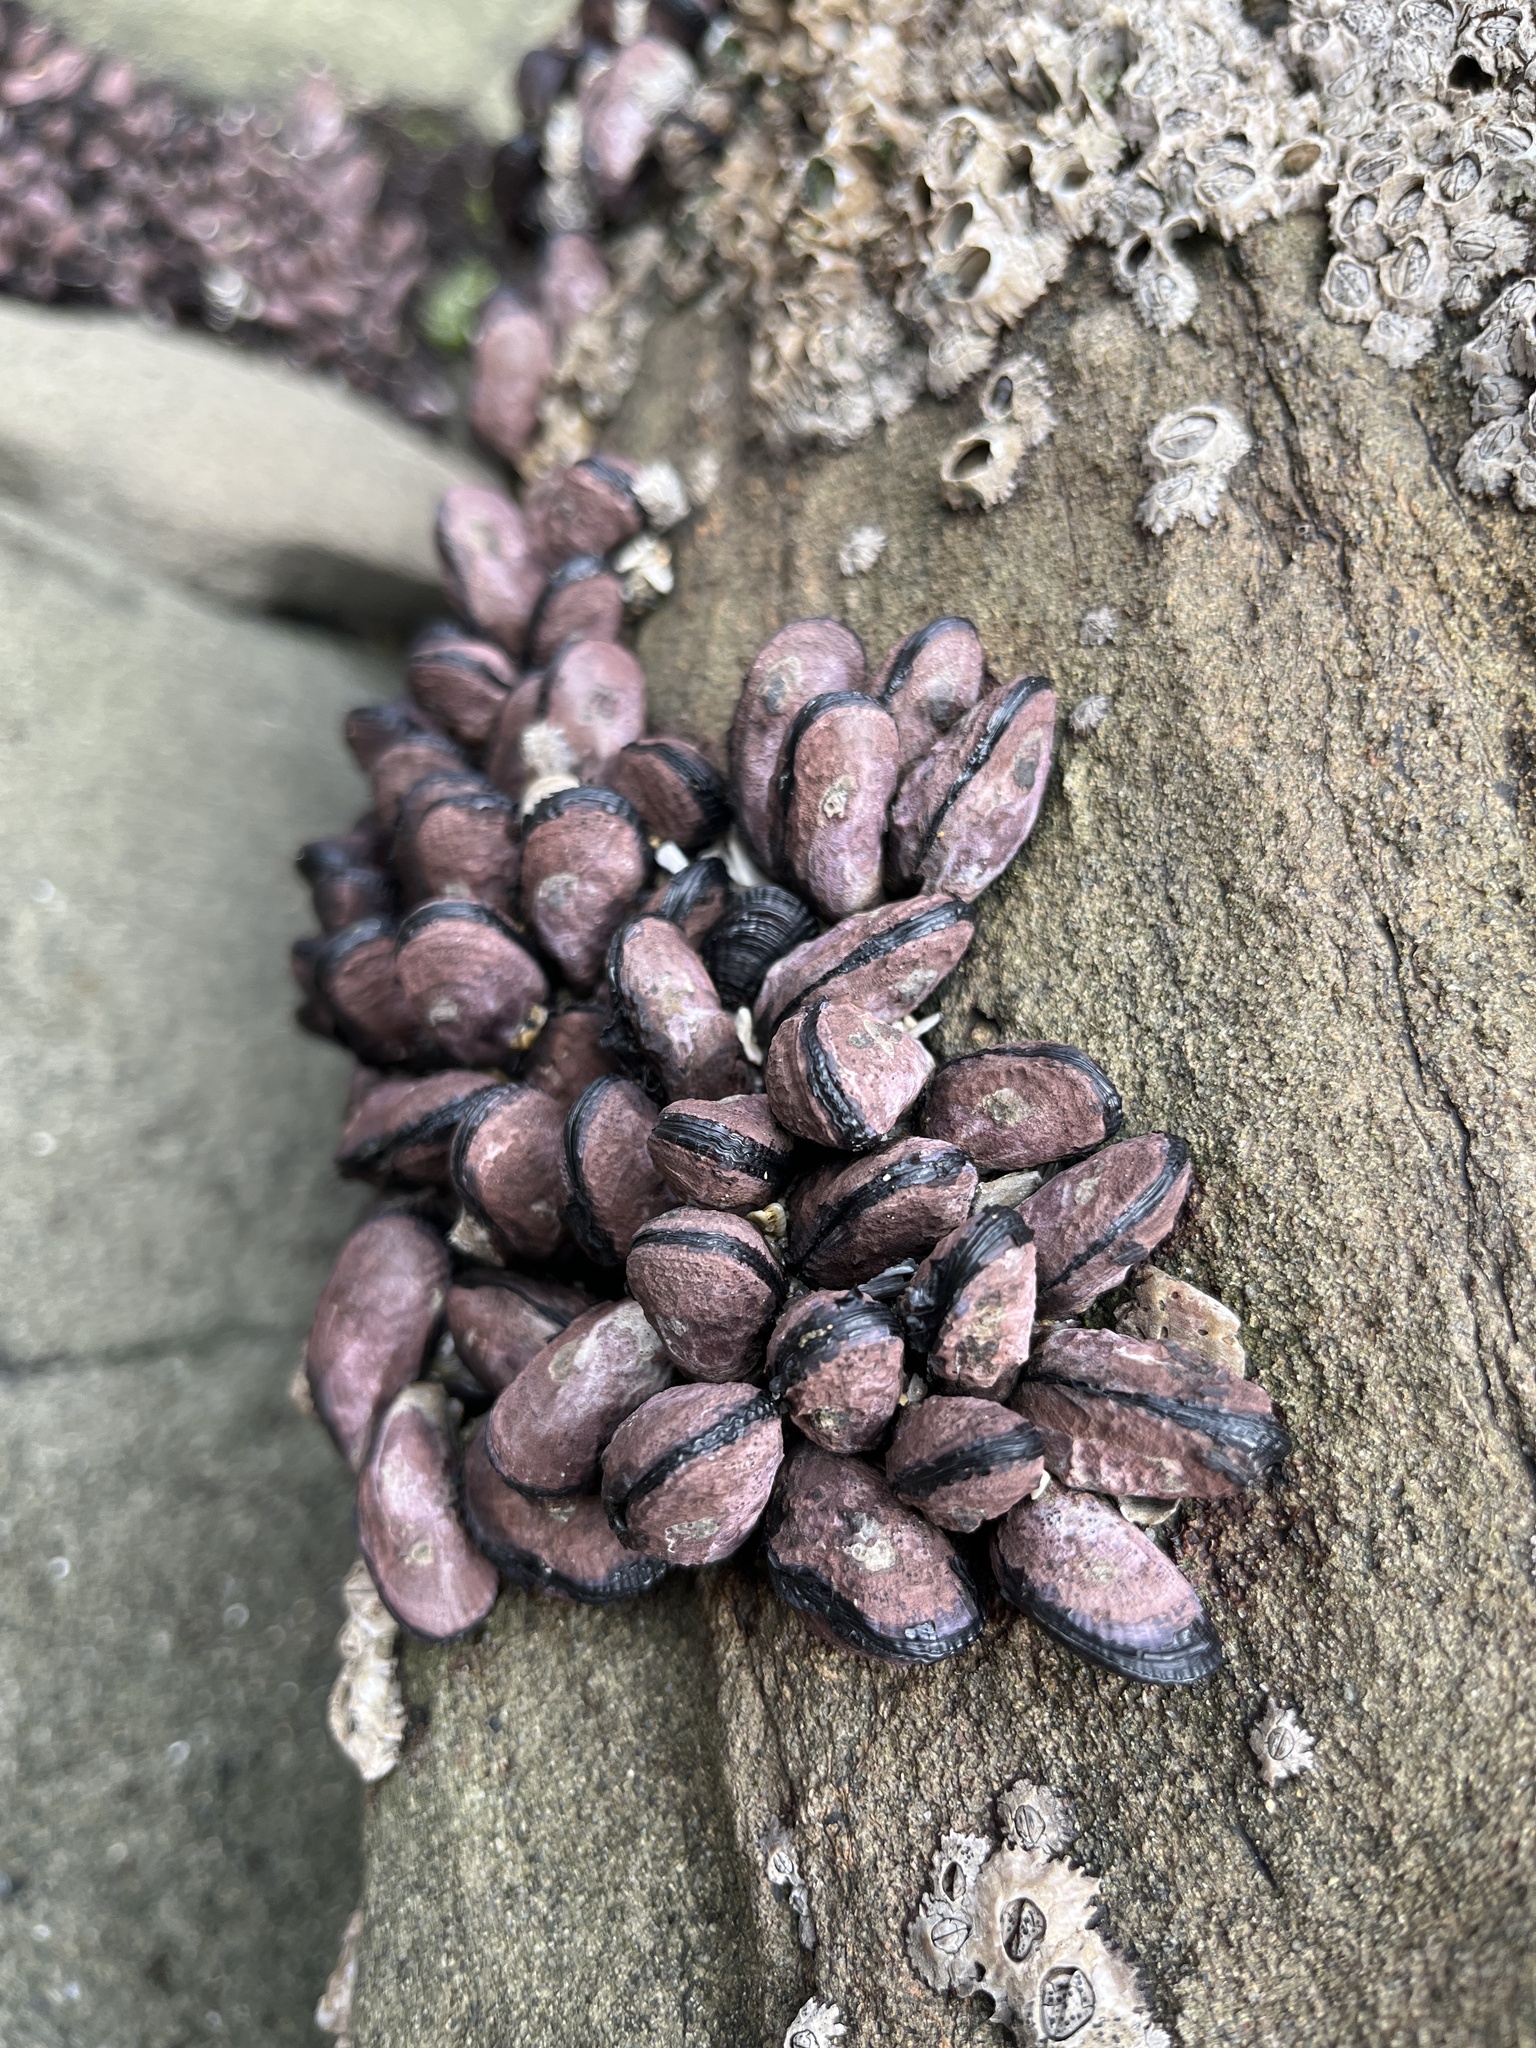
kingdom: Animalia
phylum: Mollusca
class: Bivalvia
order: Mytilida
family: Mytilidae
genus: Perumytilus
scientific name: Perumytilus purpuratus
